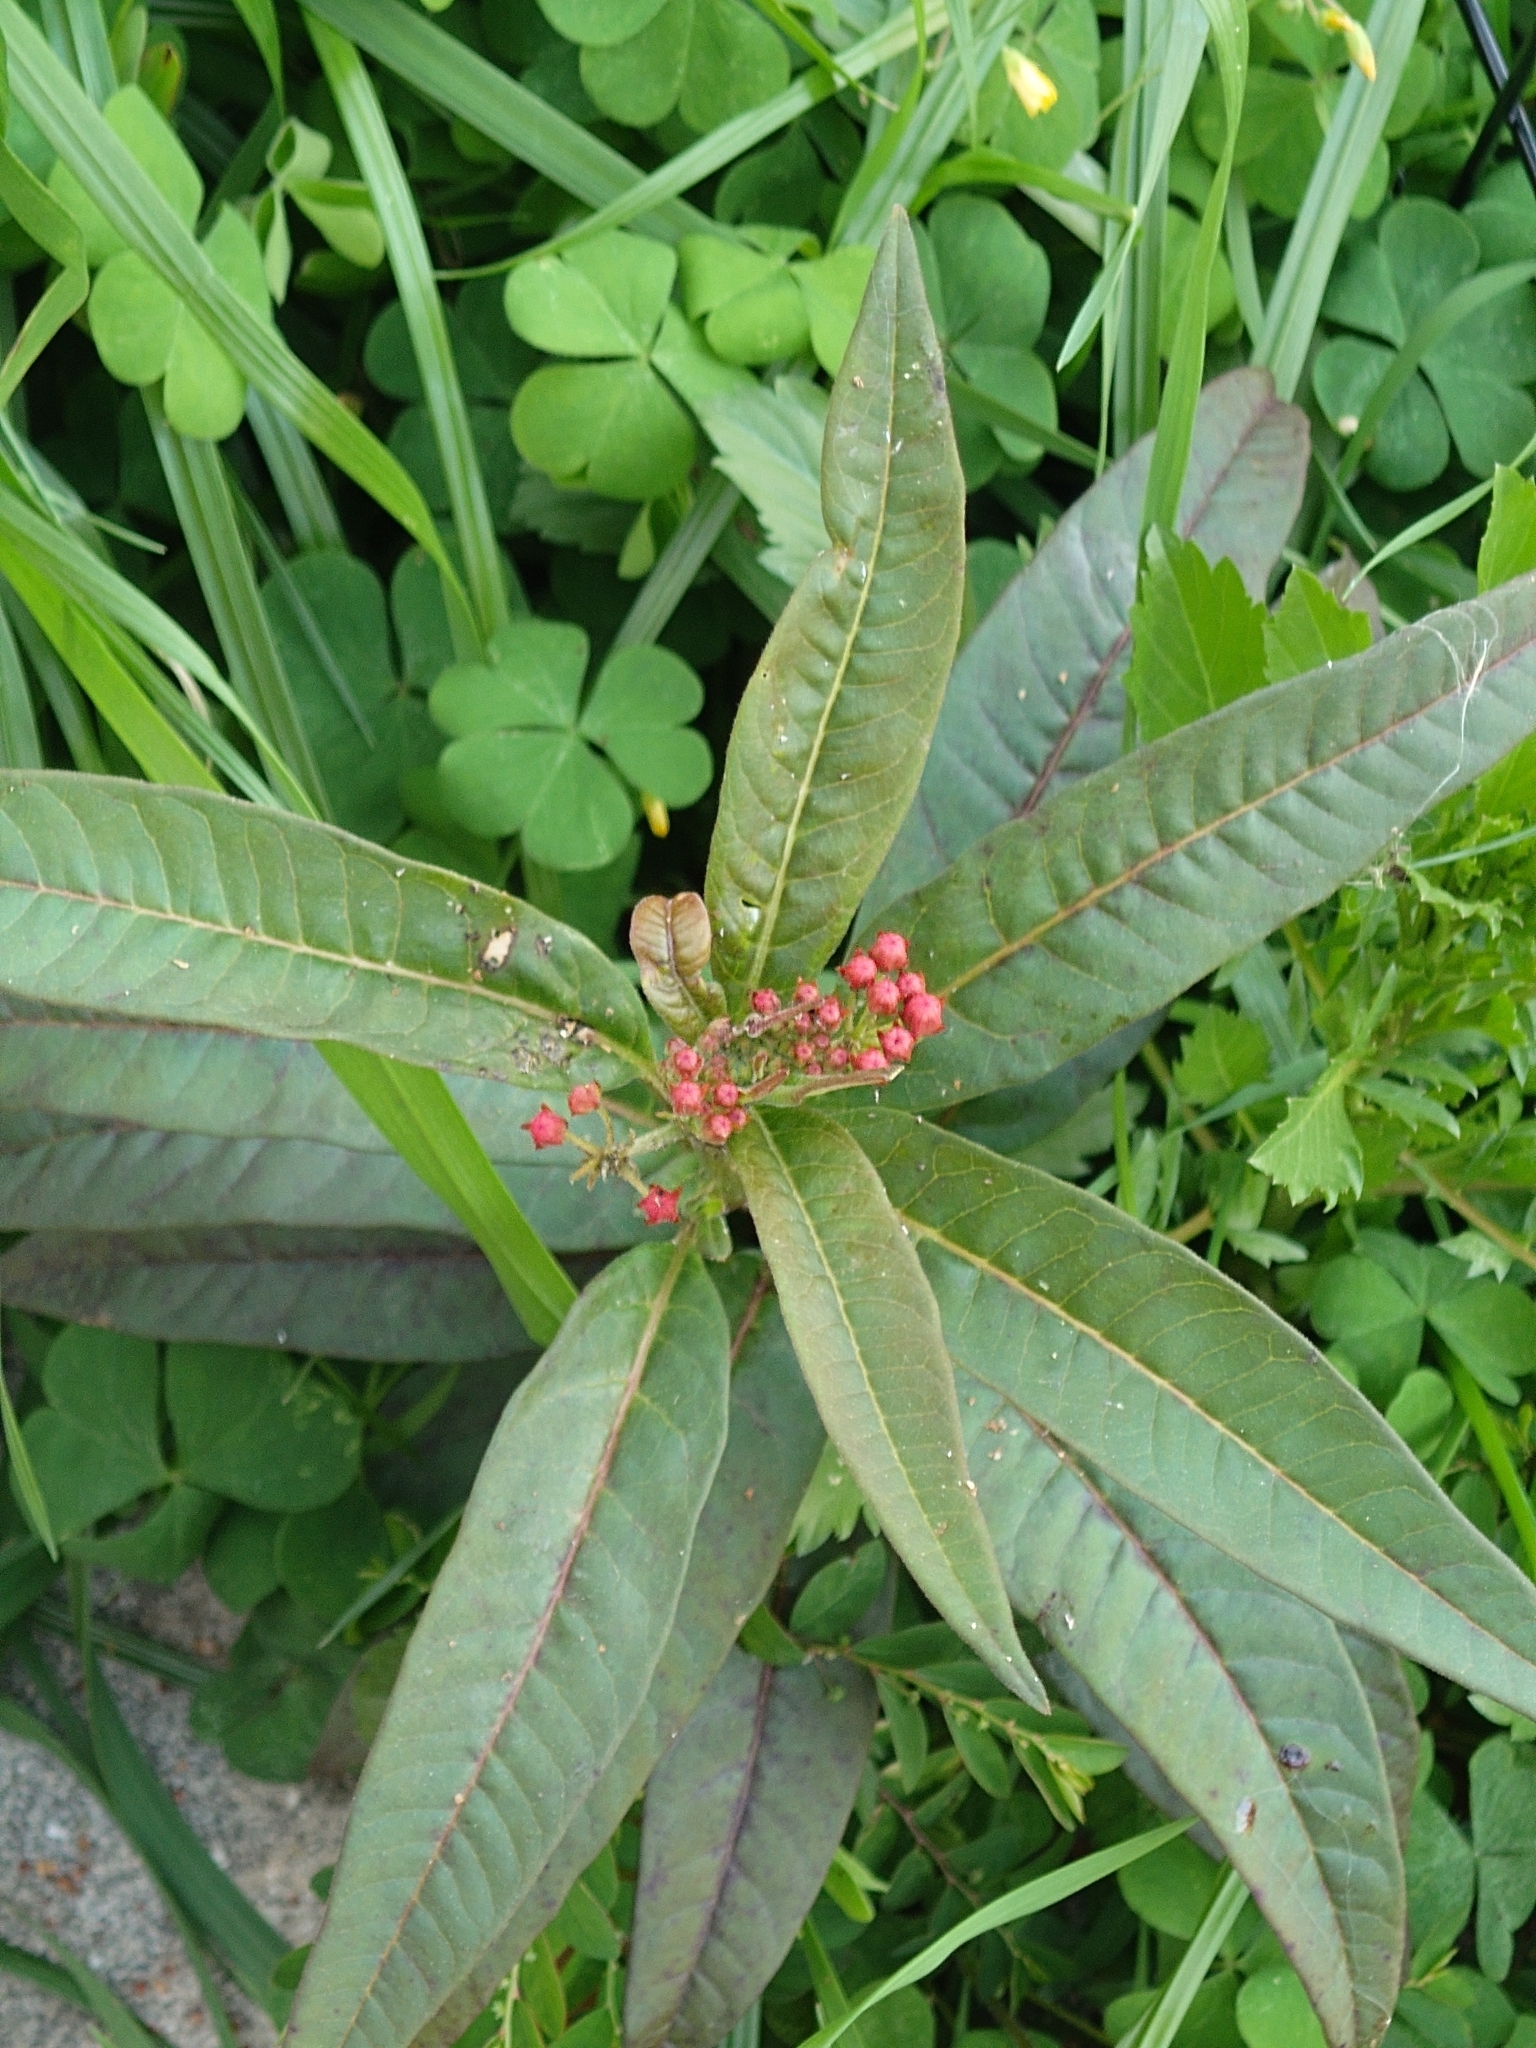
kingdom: Plantae
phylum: Tracheophyta
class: Magnoliopsida
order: Gentianales
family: Apocynaceae
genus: Asclepias
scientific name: Asclepias curassavica
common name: Bloodflower
